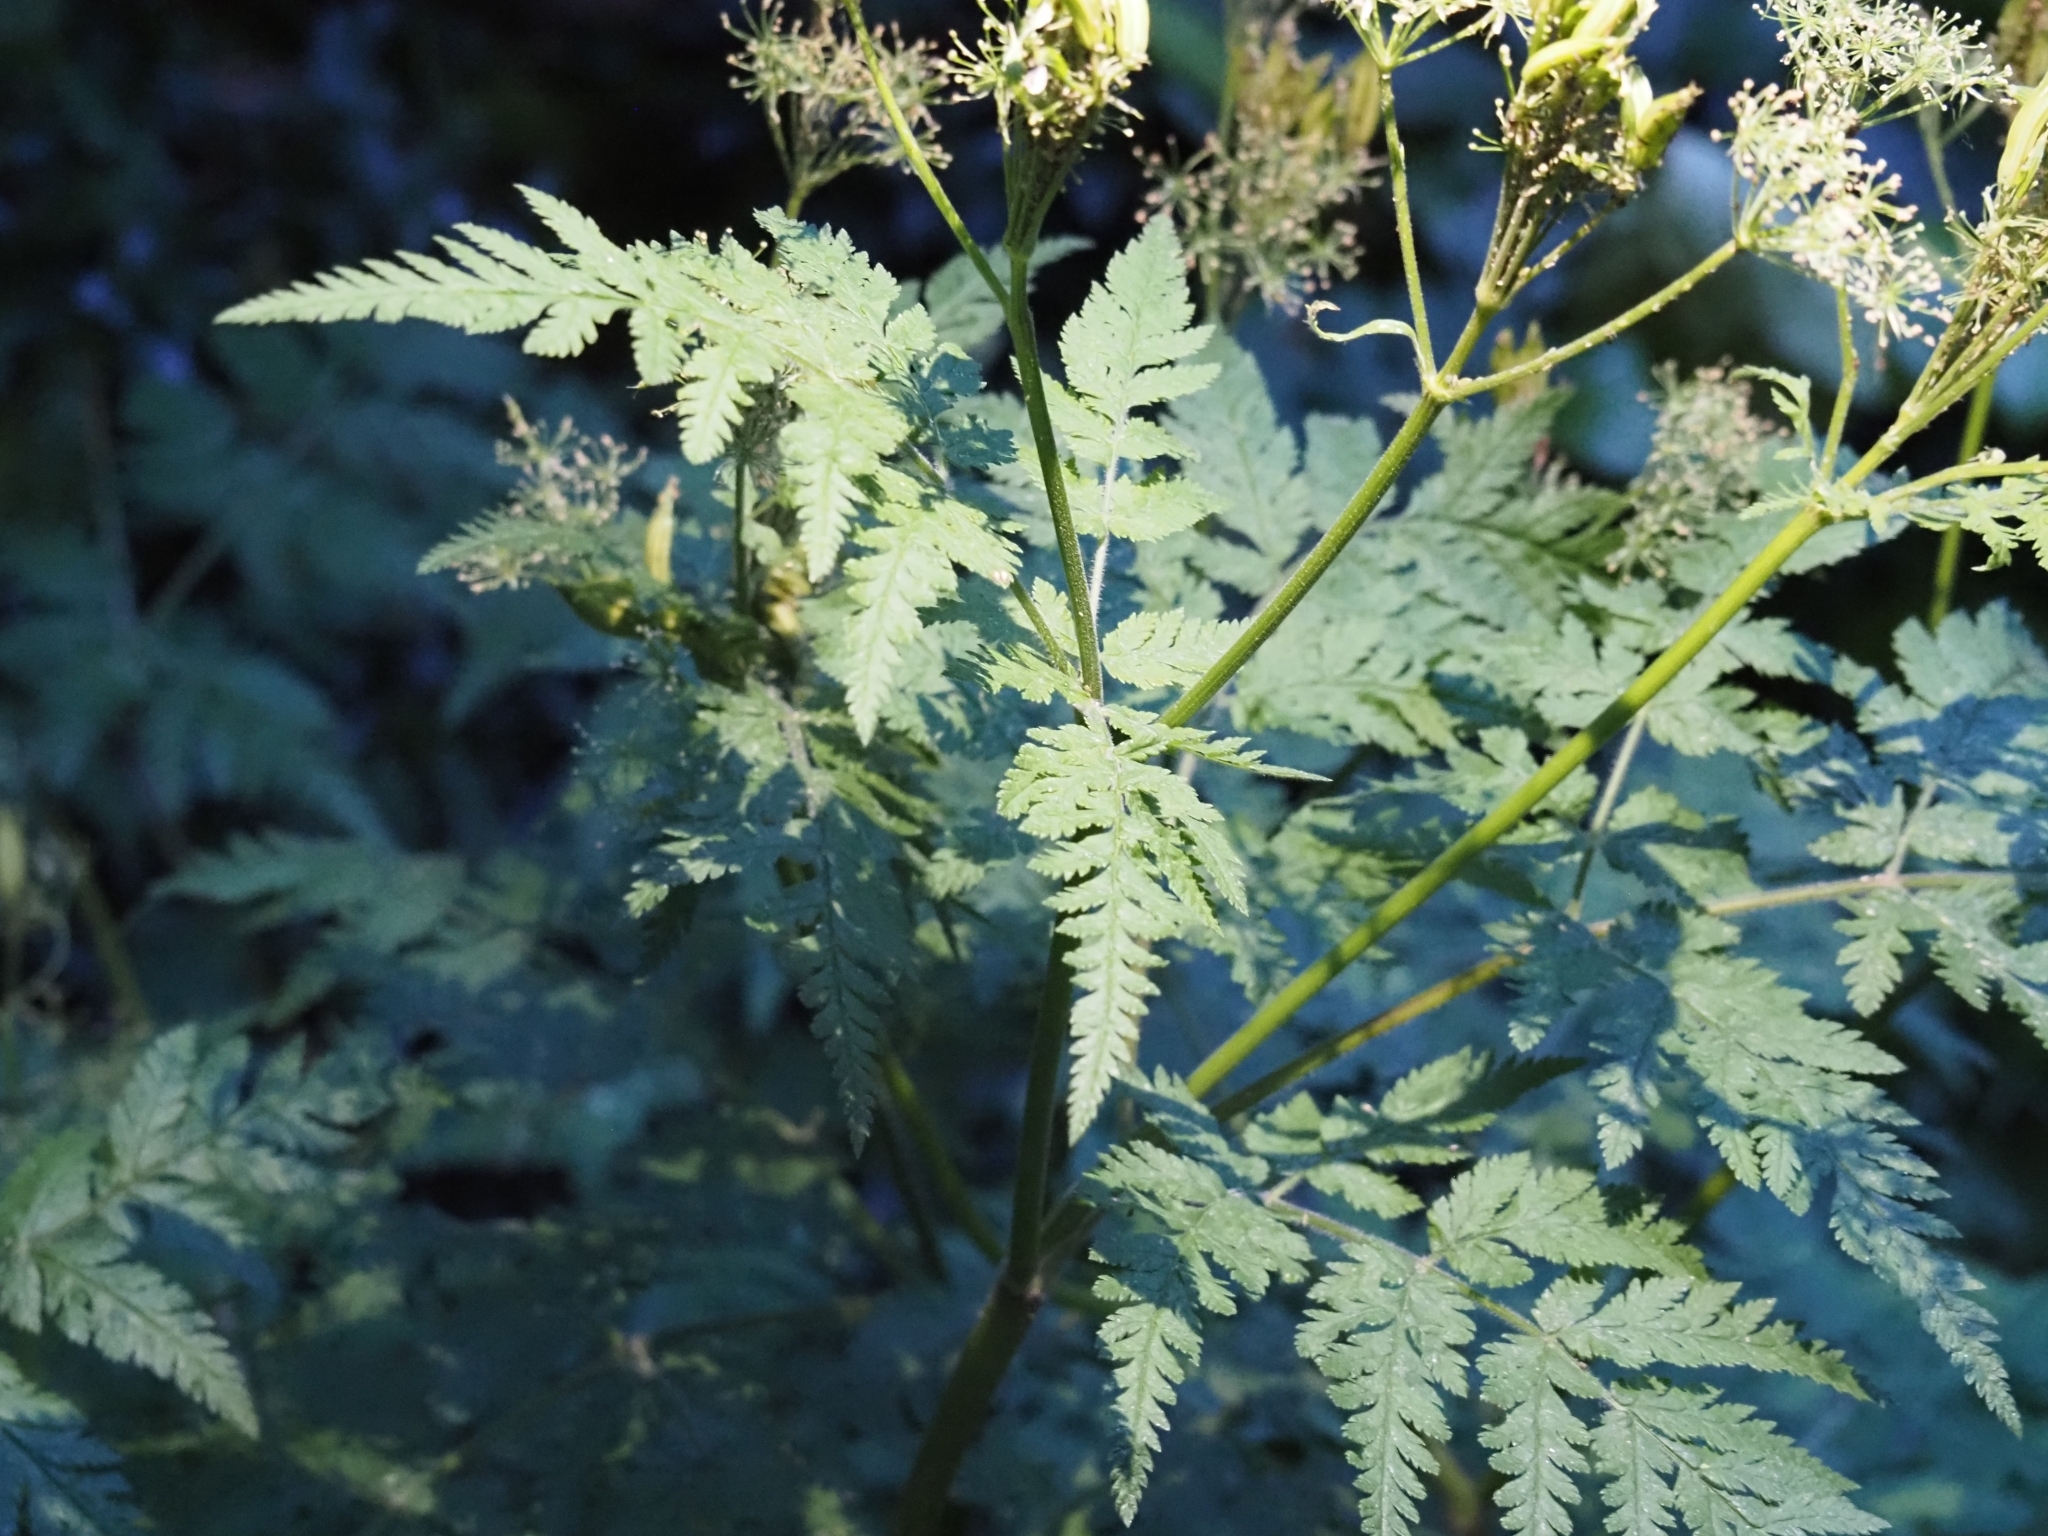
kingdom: Plantae
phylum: Tracheophyta
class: Magnoliopsida
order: Apiales
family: Apiaceae
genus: Myrrhis
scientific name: Myrrhis odorata
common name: Sweet cicely
